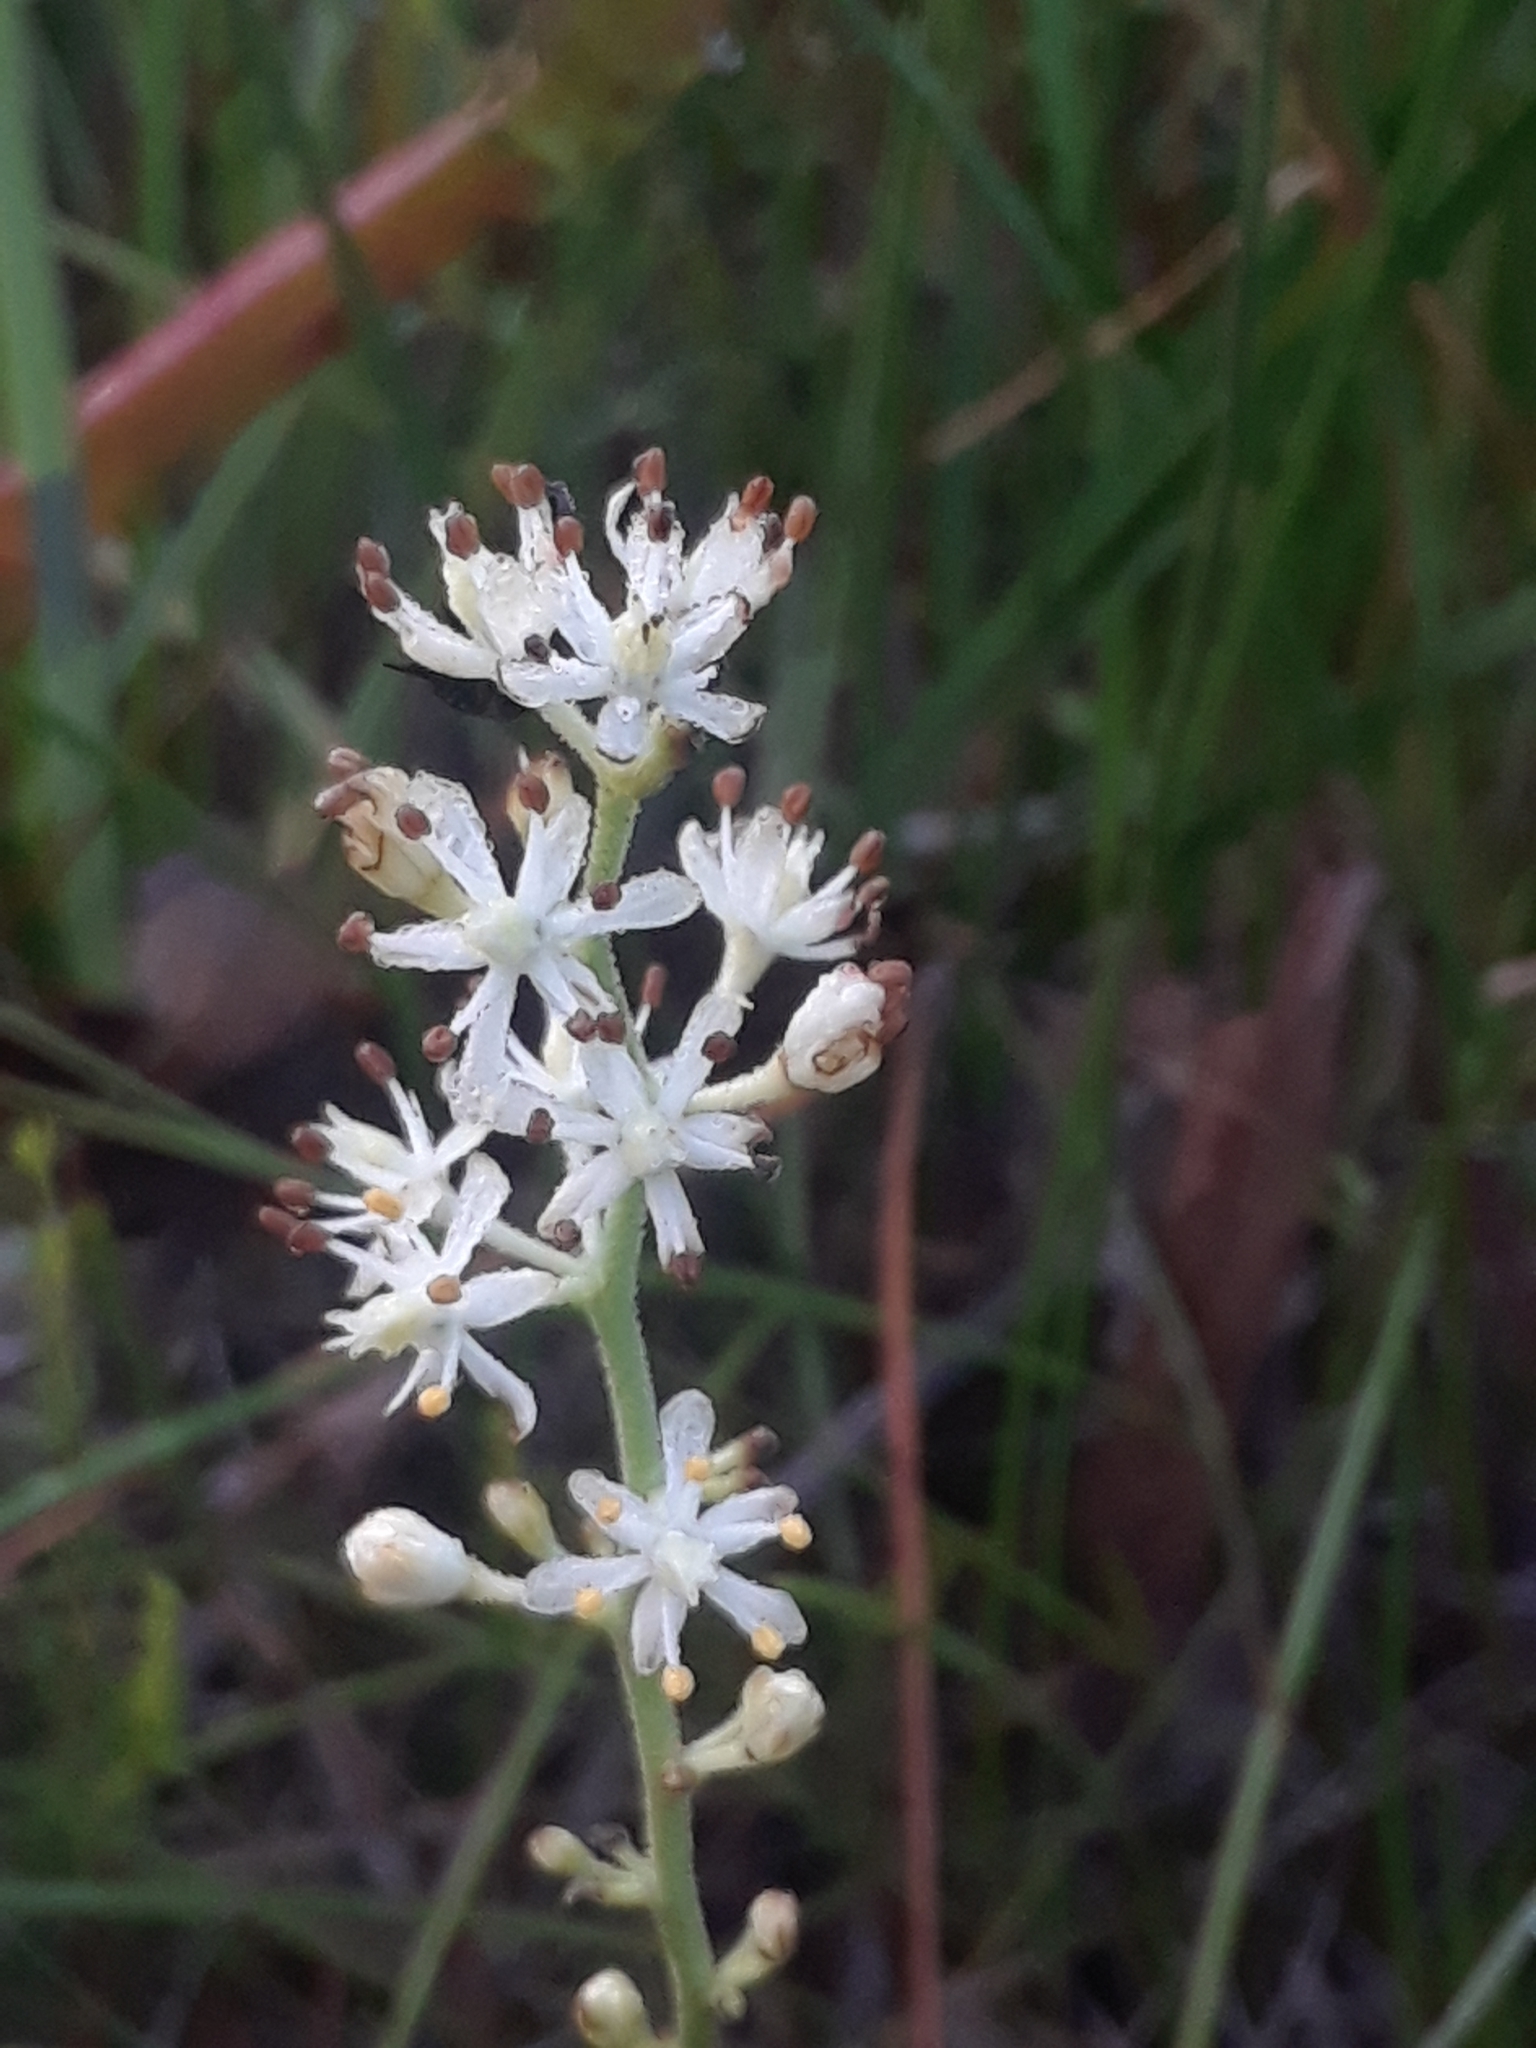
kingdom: Plantae
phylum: Tracheophyta
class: Liliopsida
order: Alismatales
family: Tofieldiaceae
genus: Triantha
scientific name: Triantha racemosa
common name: Coastal false asphodel
